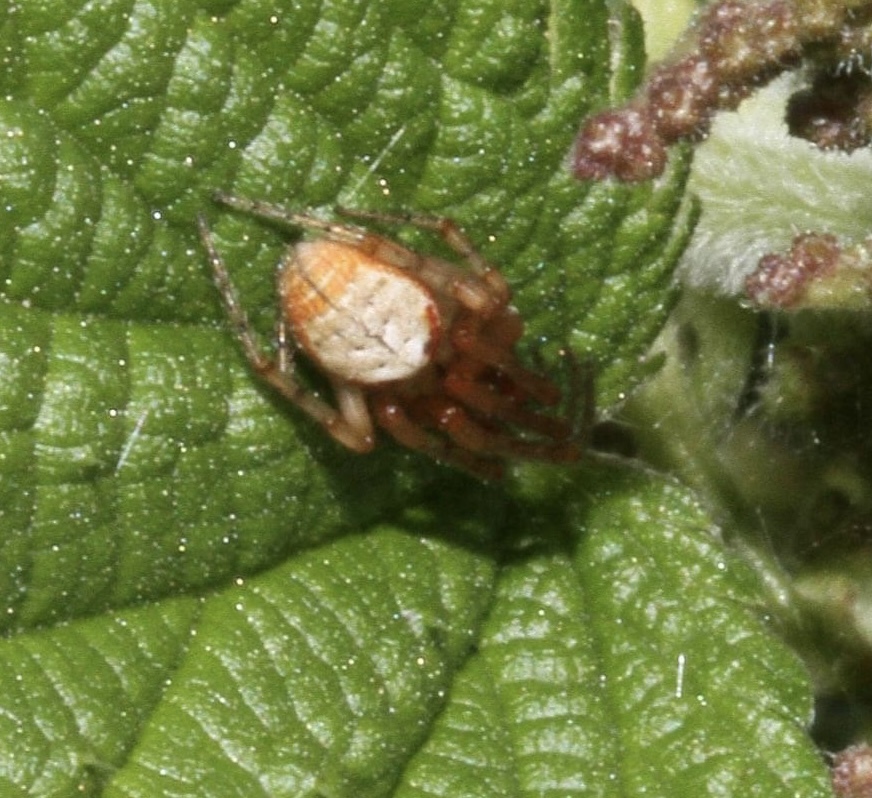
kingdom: Animalia
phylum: Arthropoda
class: Arachnida
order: Araneae
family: Araneidae
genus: Zygiella
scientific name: Zygiella atrica
